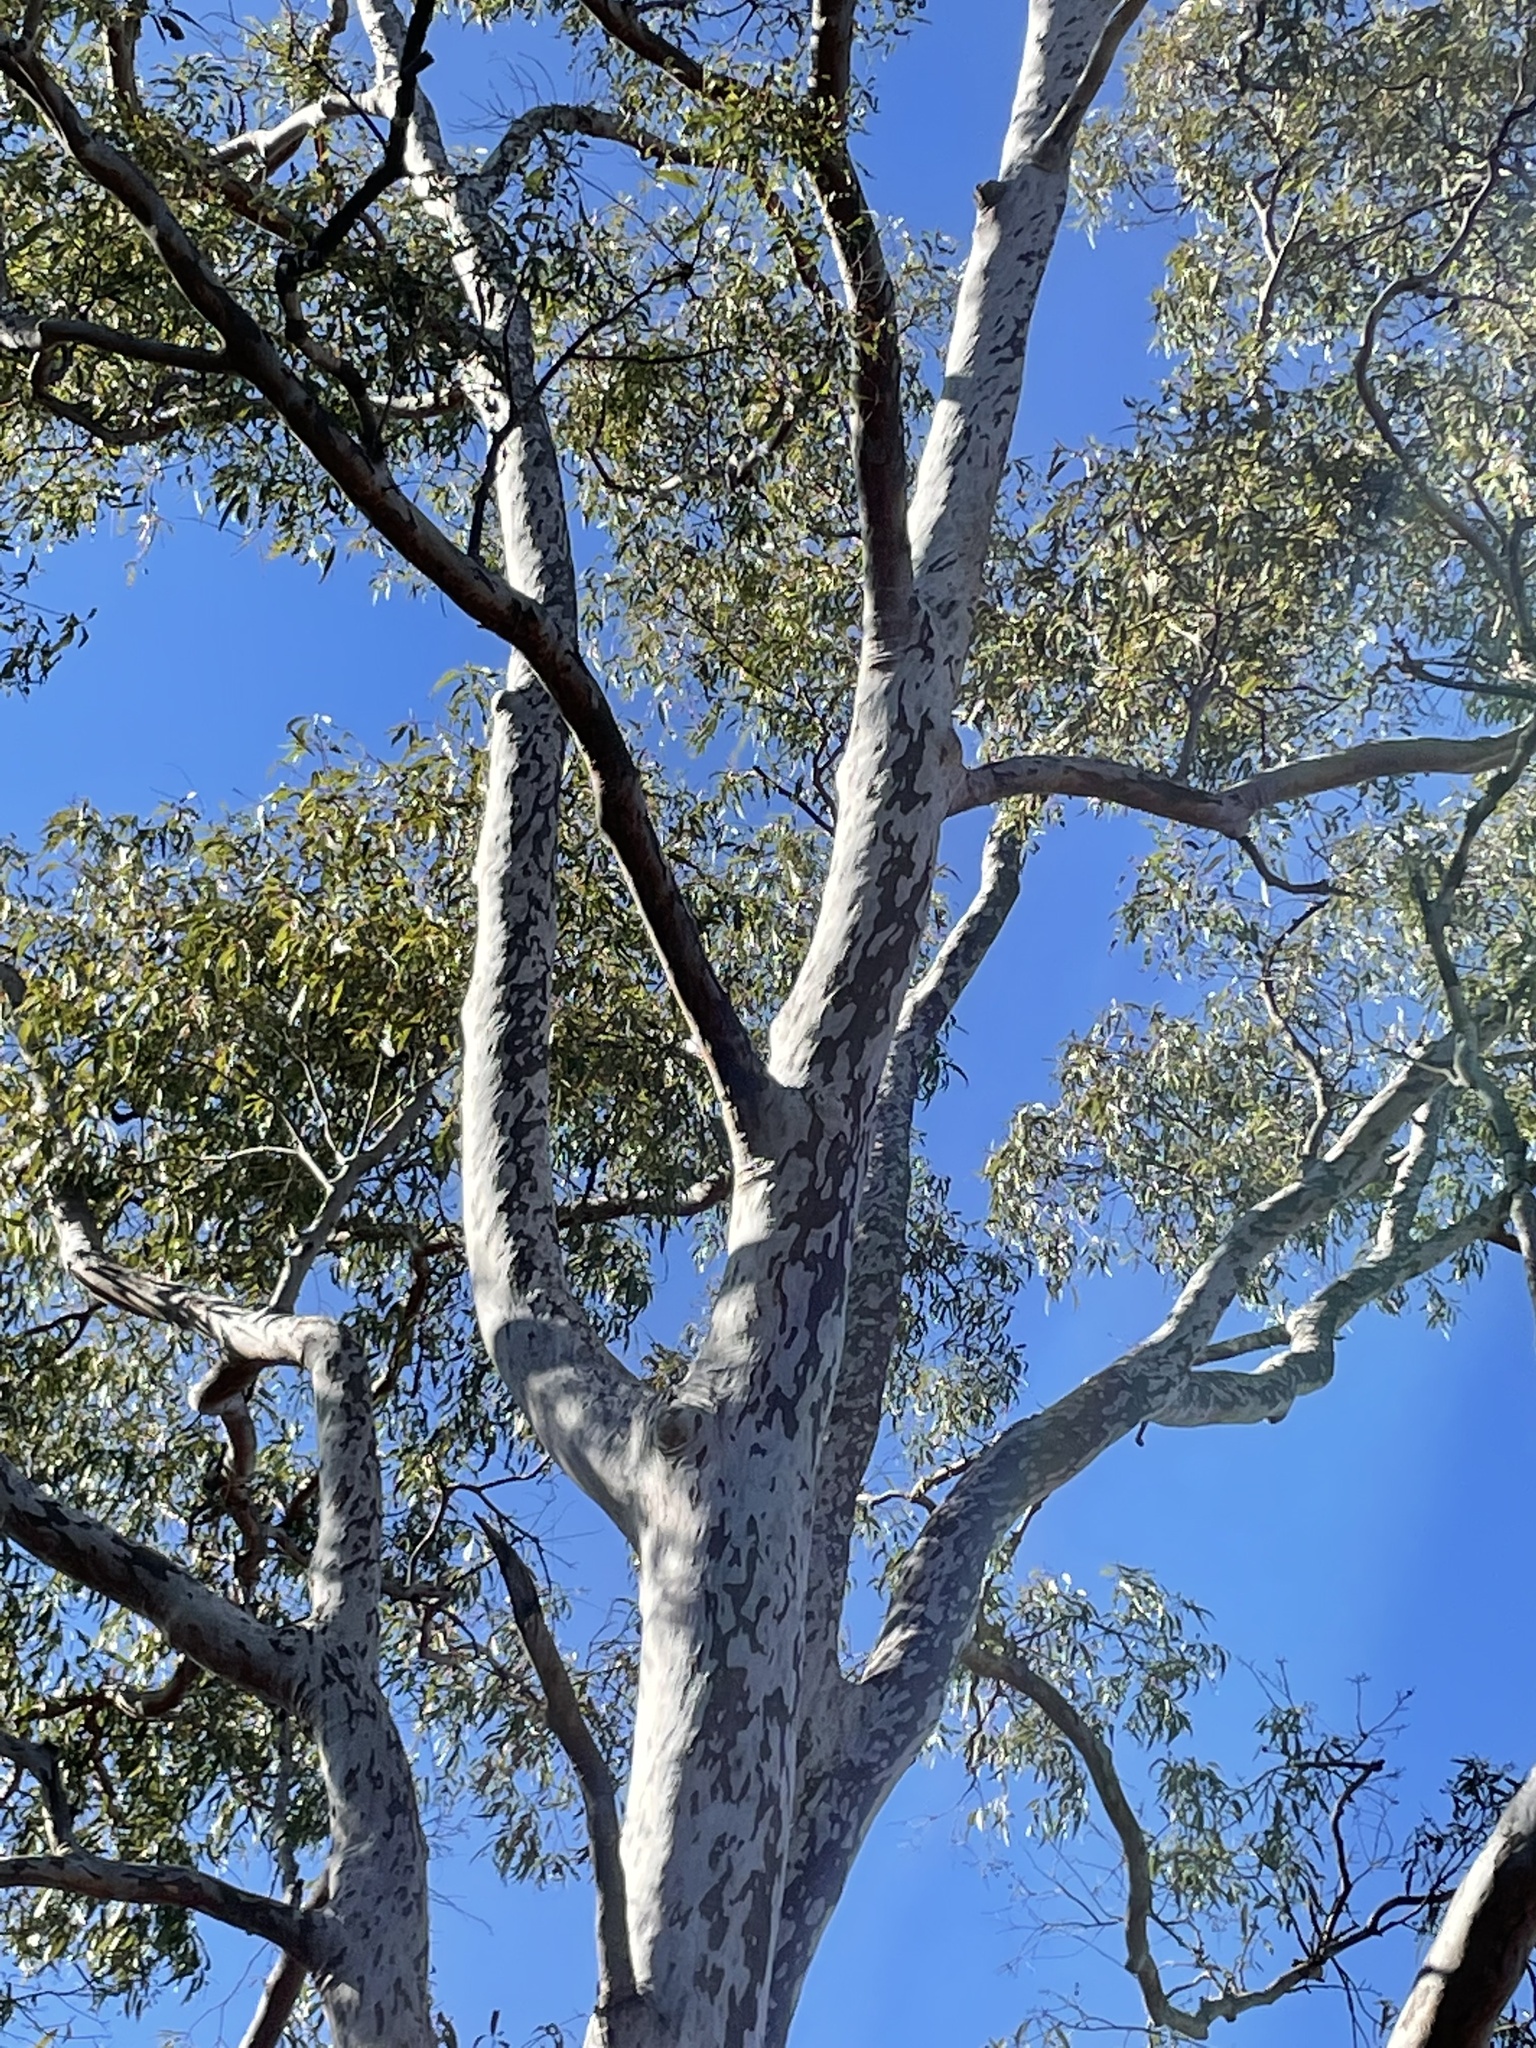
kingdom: Plantae
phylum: Tracheophyta
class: Magnoliopsida
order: Myrtales
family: Myrtaceae
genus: Angophora
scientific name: Angophora leiocarpa
